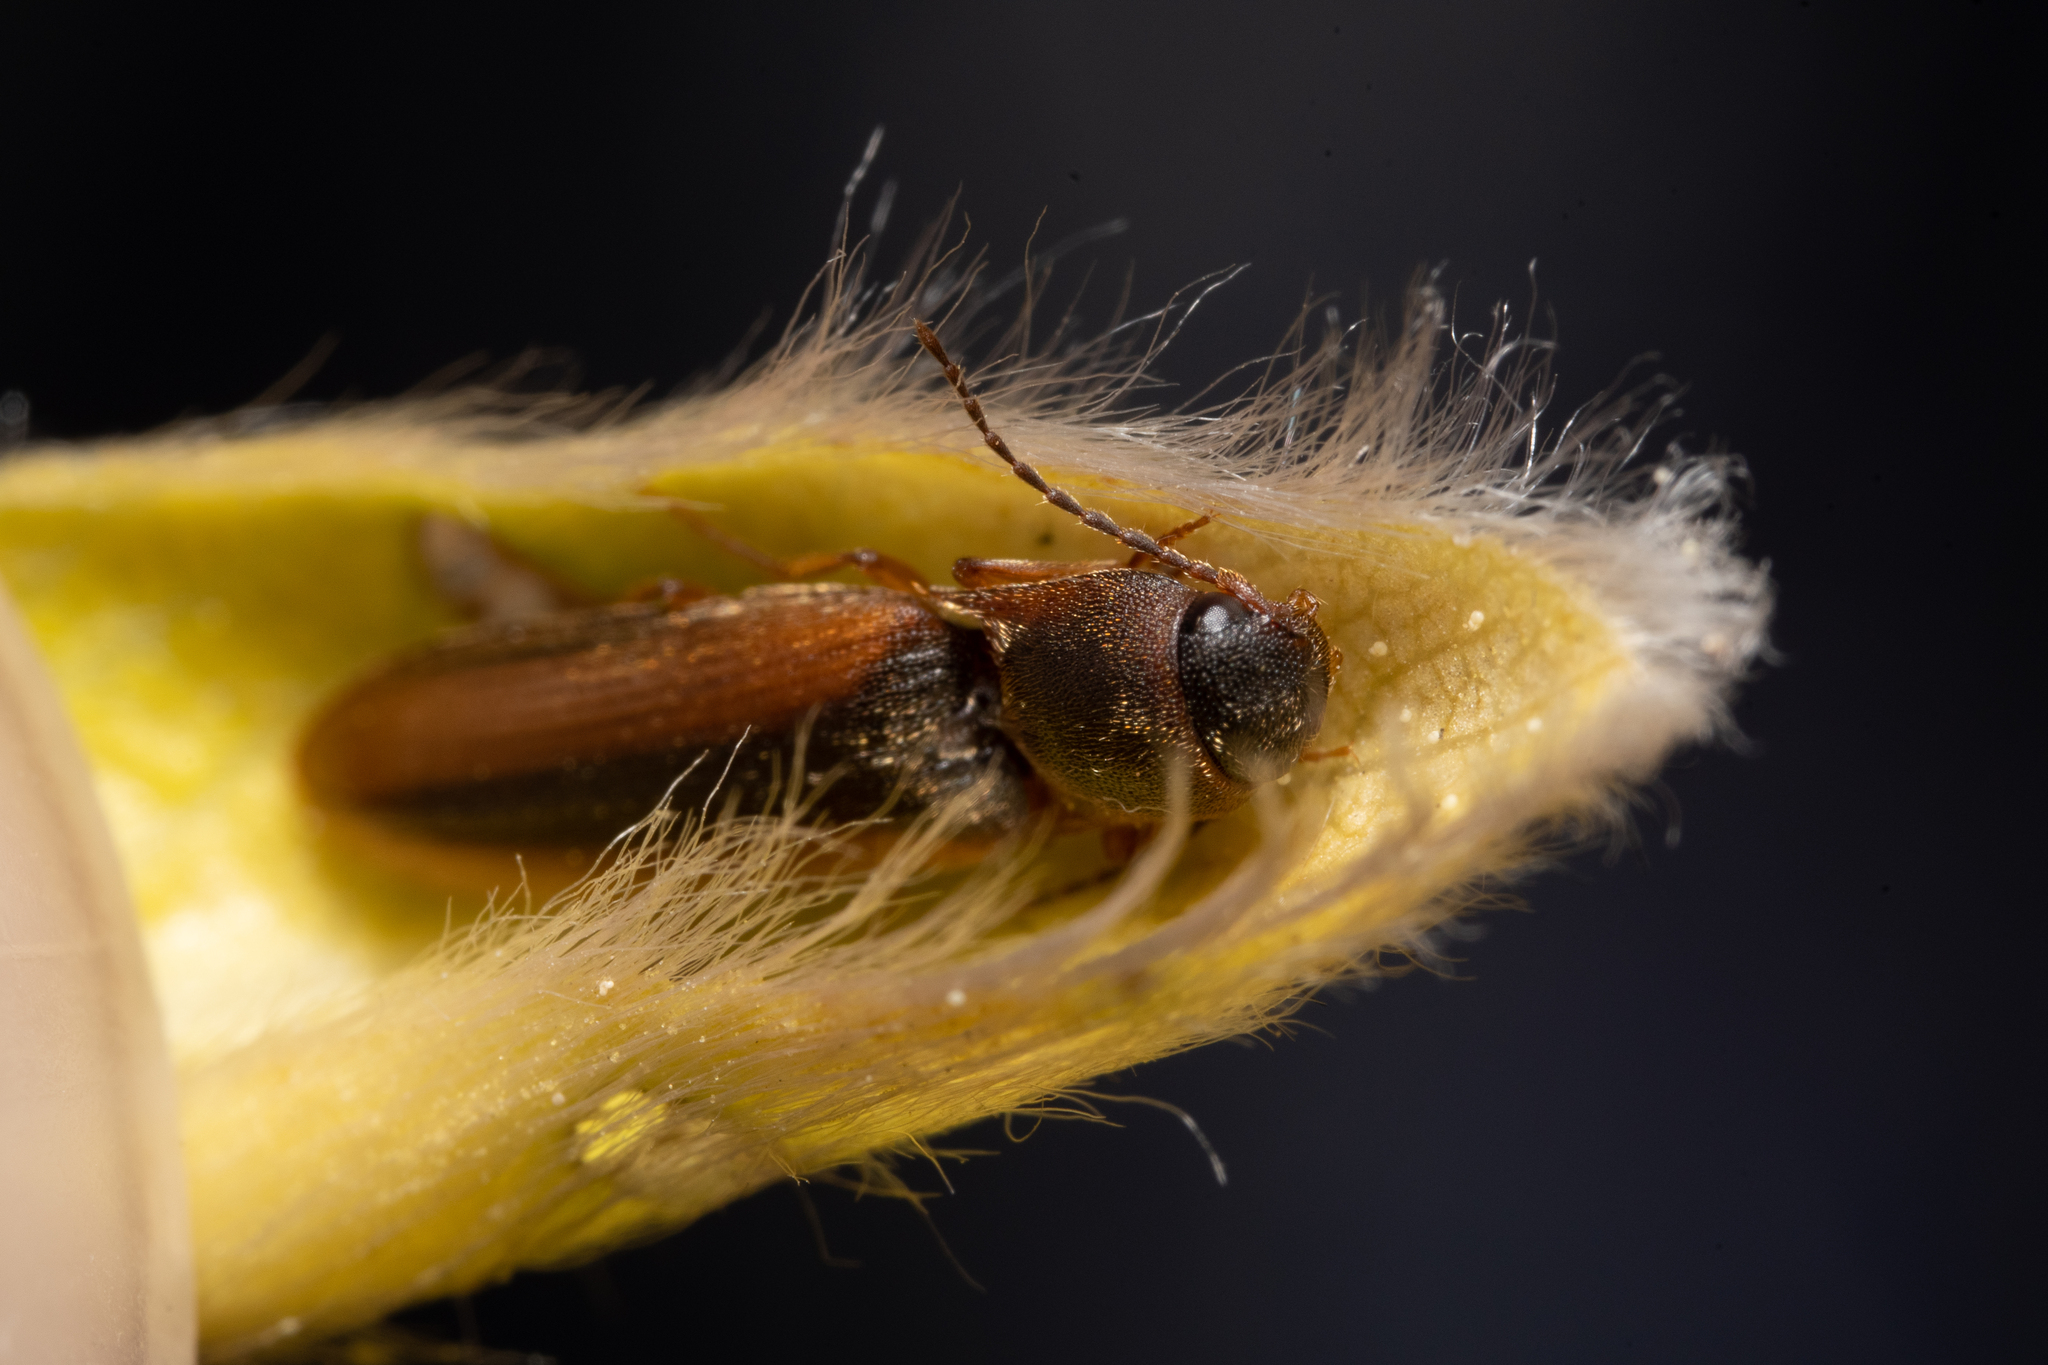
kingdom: Animalia
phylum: Arthropoda
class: Insecta
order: Coleoptera
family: Elateridae
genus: Dalopius
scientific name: Dalopius marginatus
